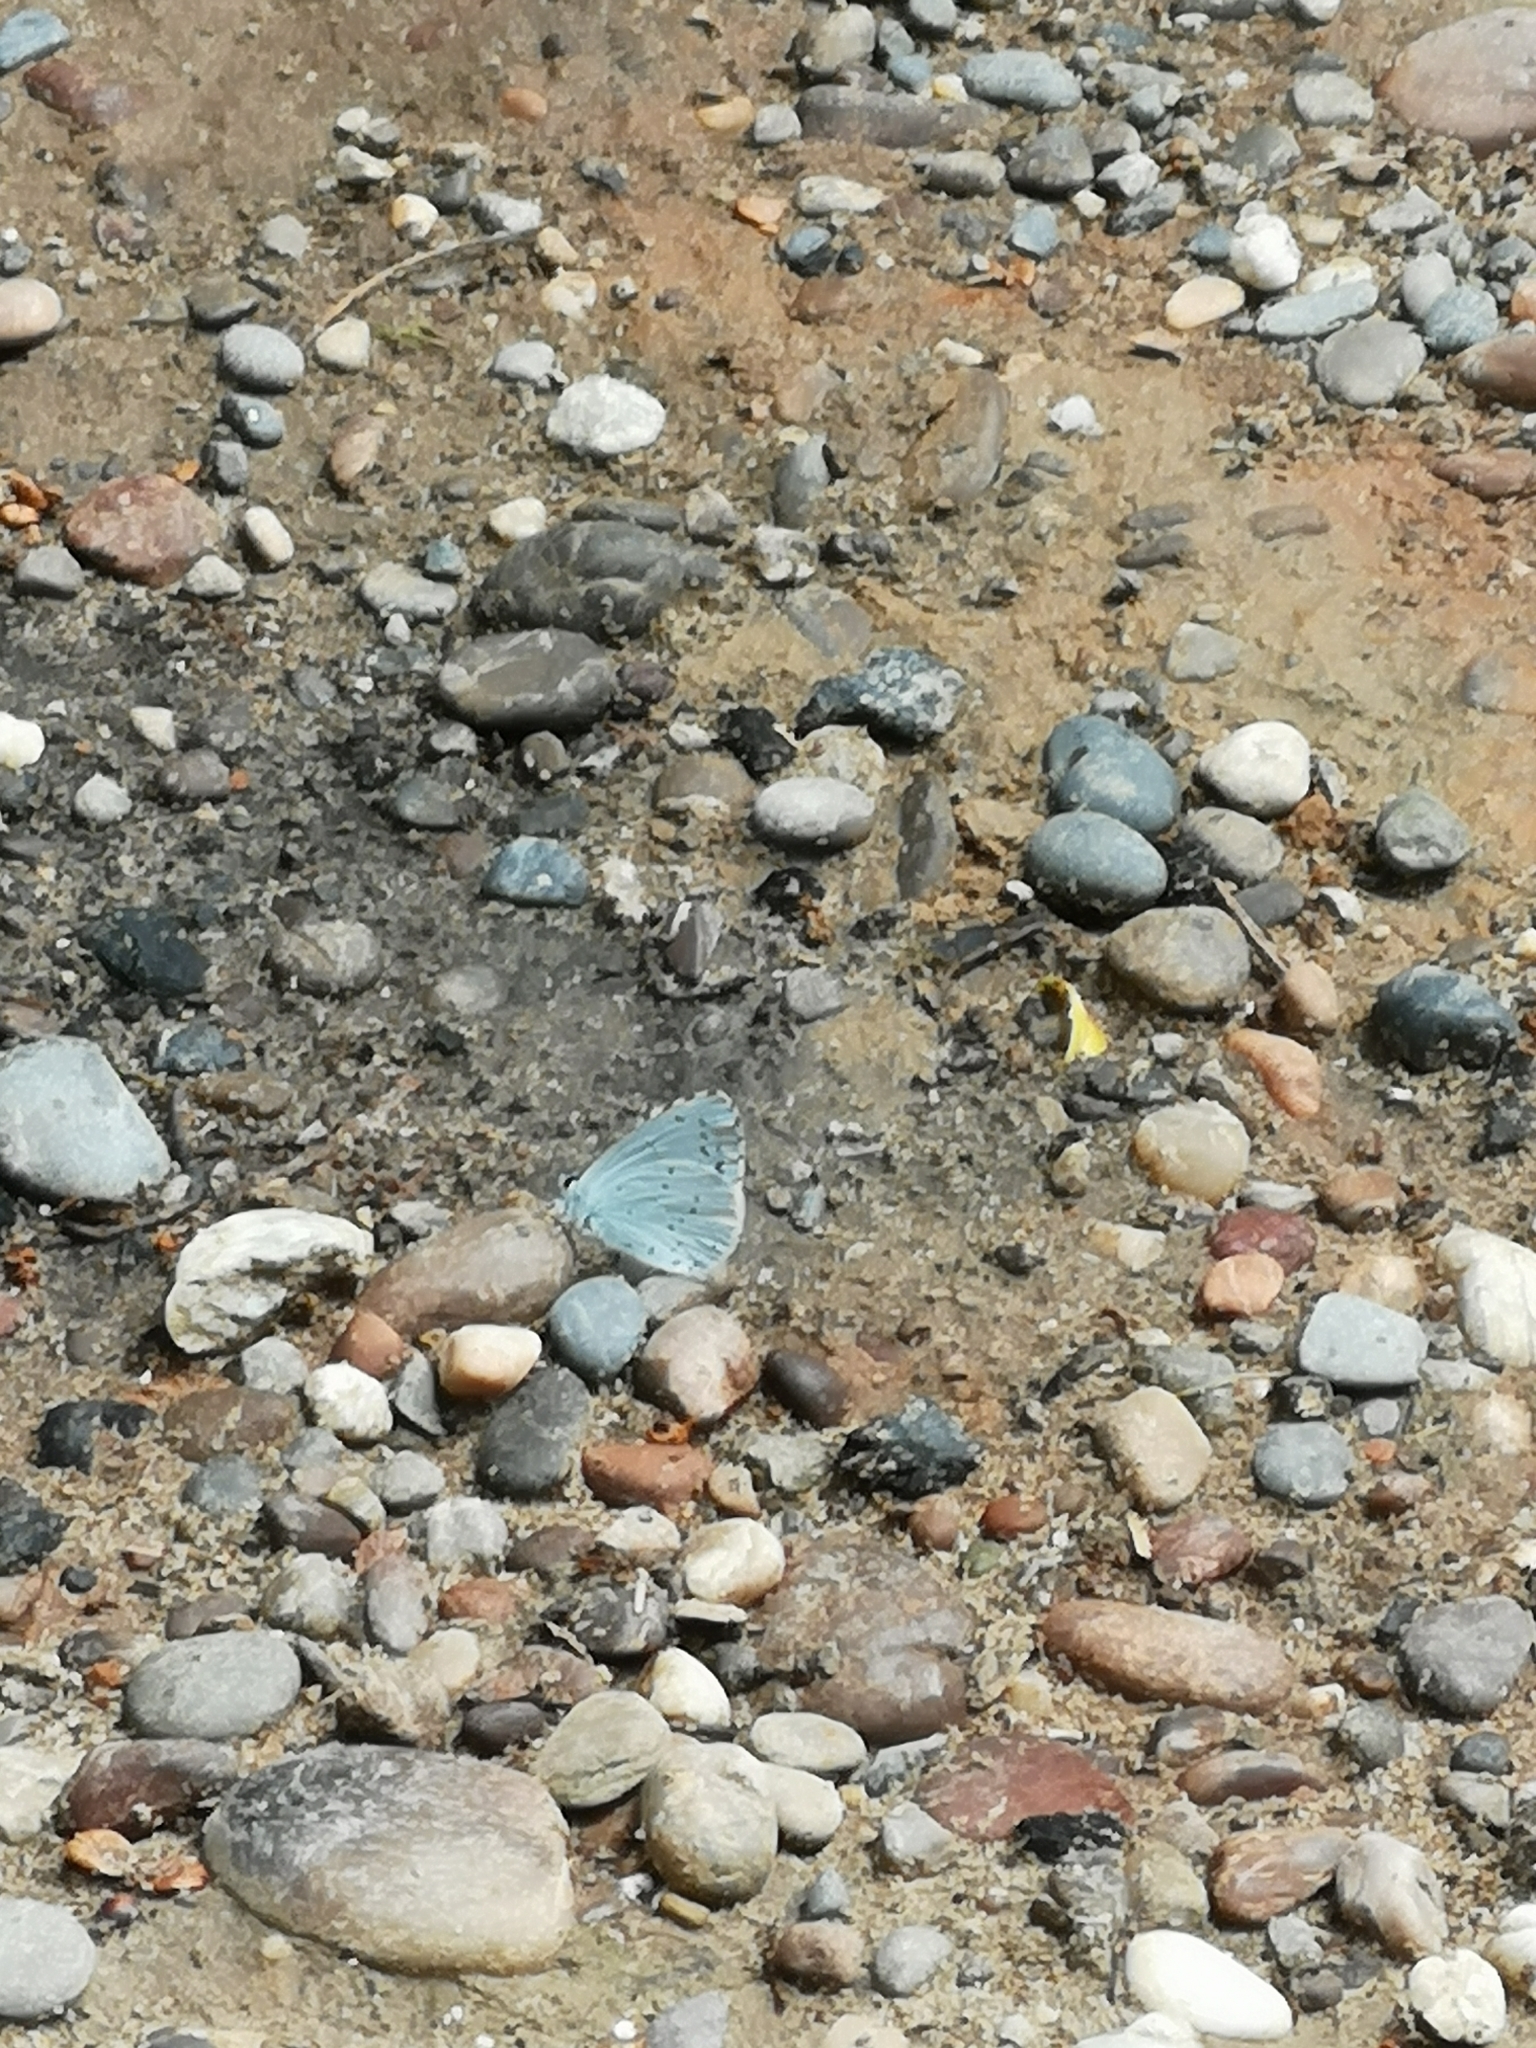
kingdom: Animalia
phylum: Arthropoda
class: Insecta
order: Lepidoptera
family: Lycaenidae
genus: Celastrina
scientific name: Celastrina argiolus
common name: Holly blue
